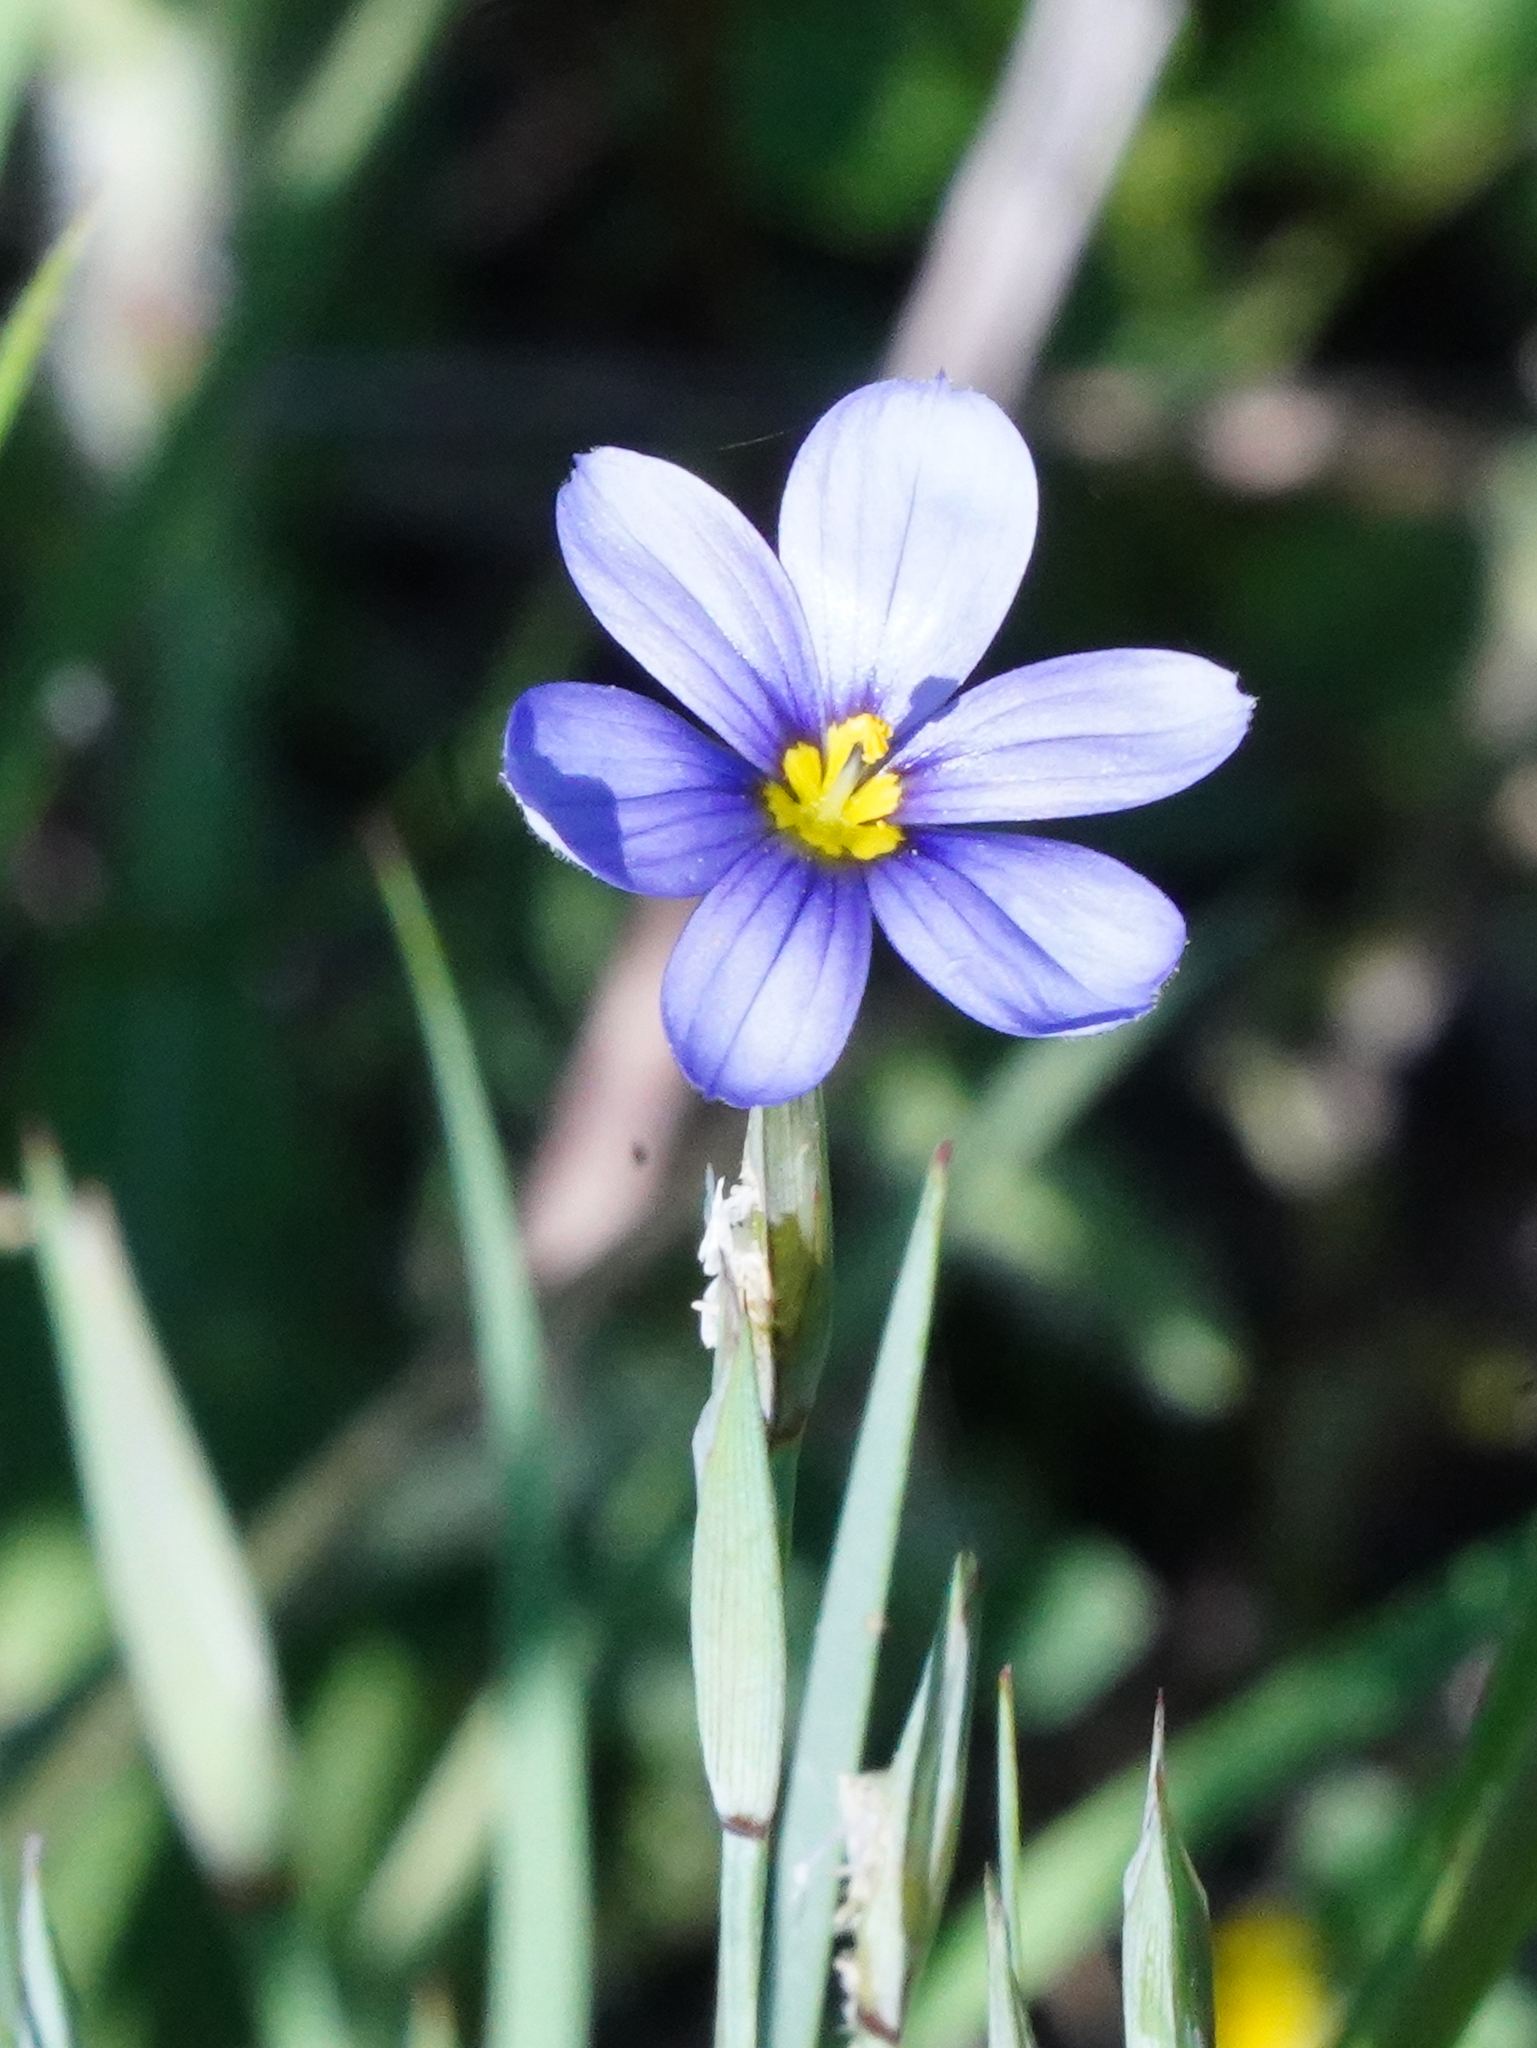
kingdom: Plantae
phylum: Tracheophyta
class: Liliopsida
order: Asparagales
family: Iridaceae
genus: Sisyrinchium
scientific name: Sisyrinchium ensigerum
